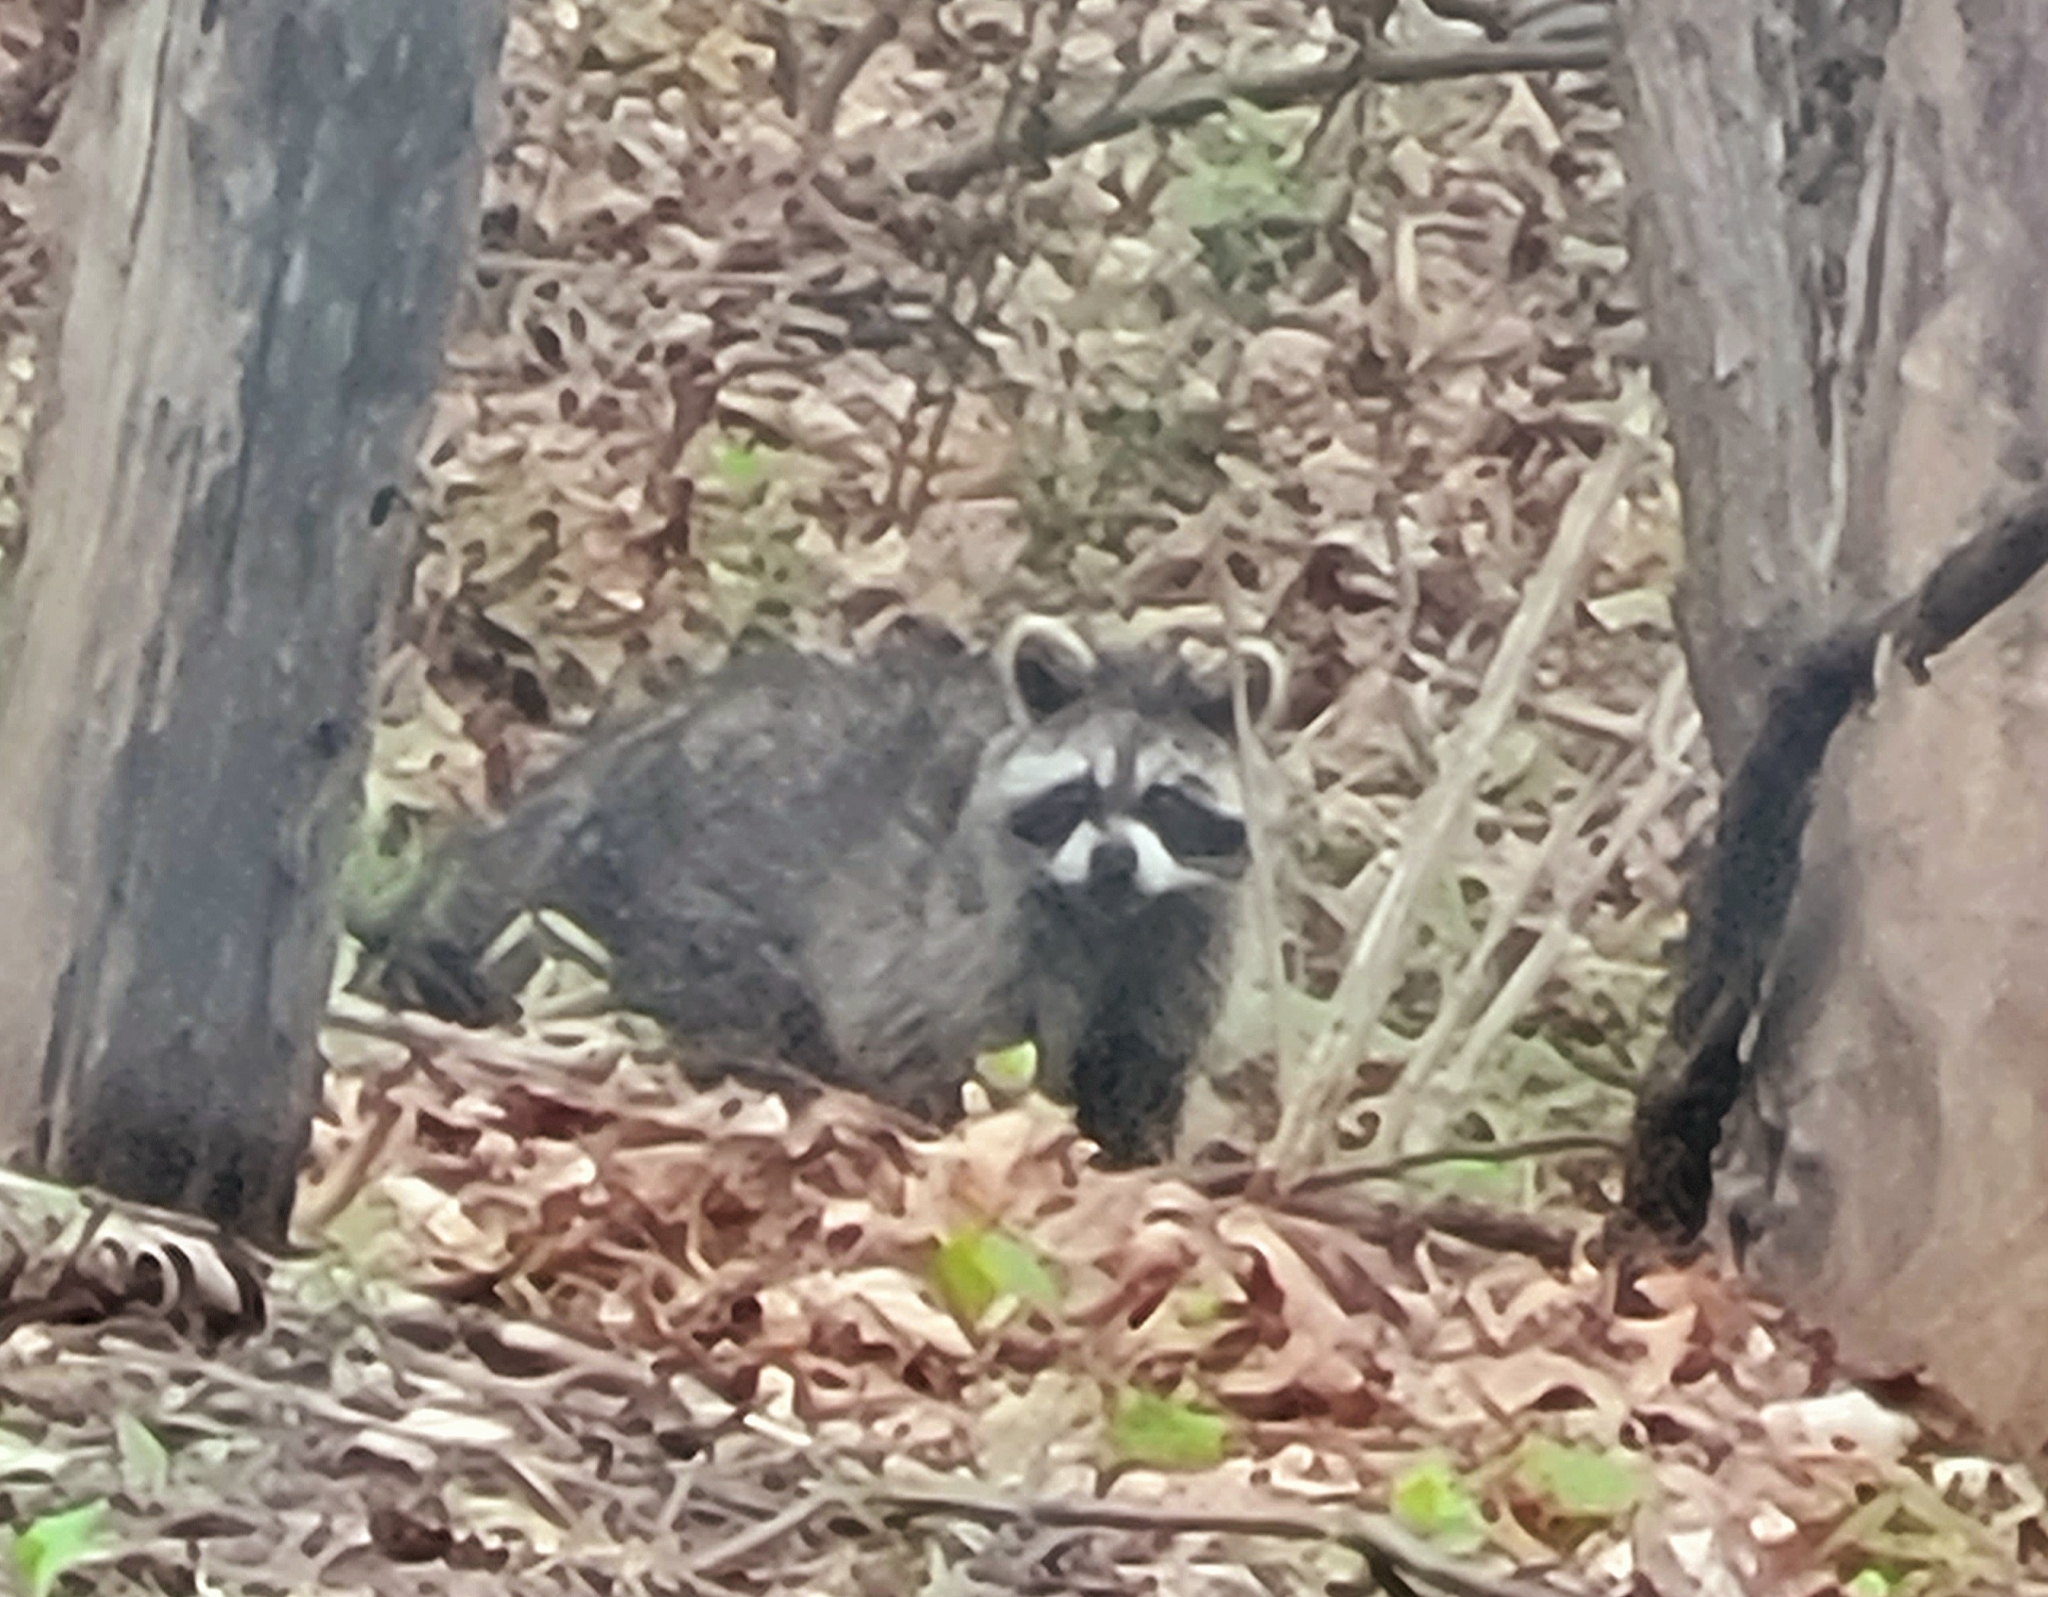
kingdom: Animalia
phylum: Chordata
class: Mammalia
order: Carnivora
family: Procyonidae
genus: Procyon
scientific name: Procyon lotor
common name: Raccoon
